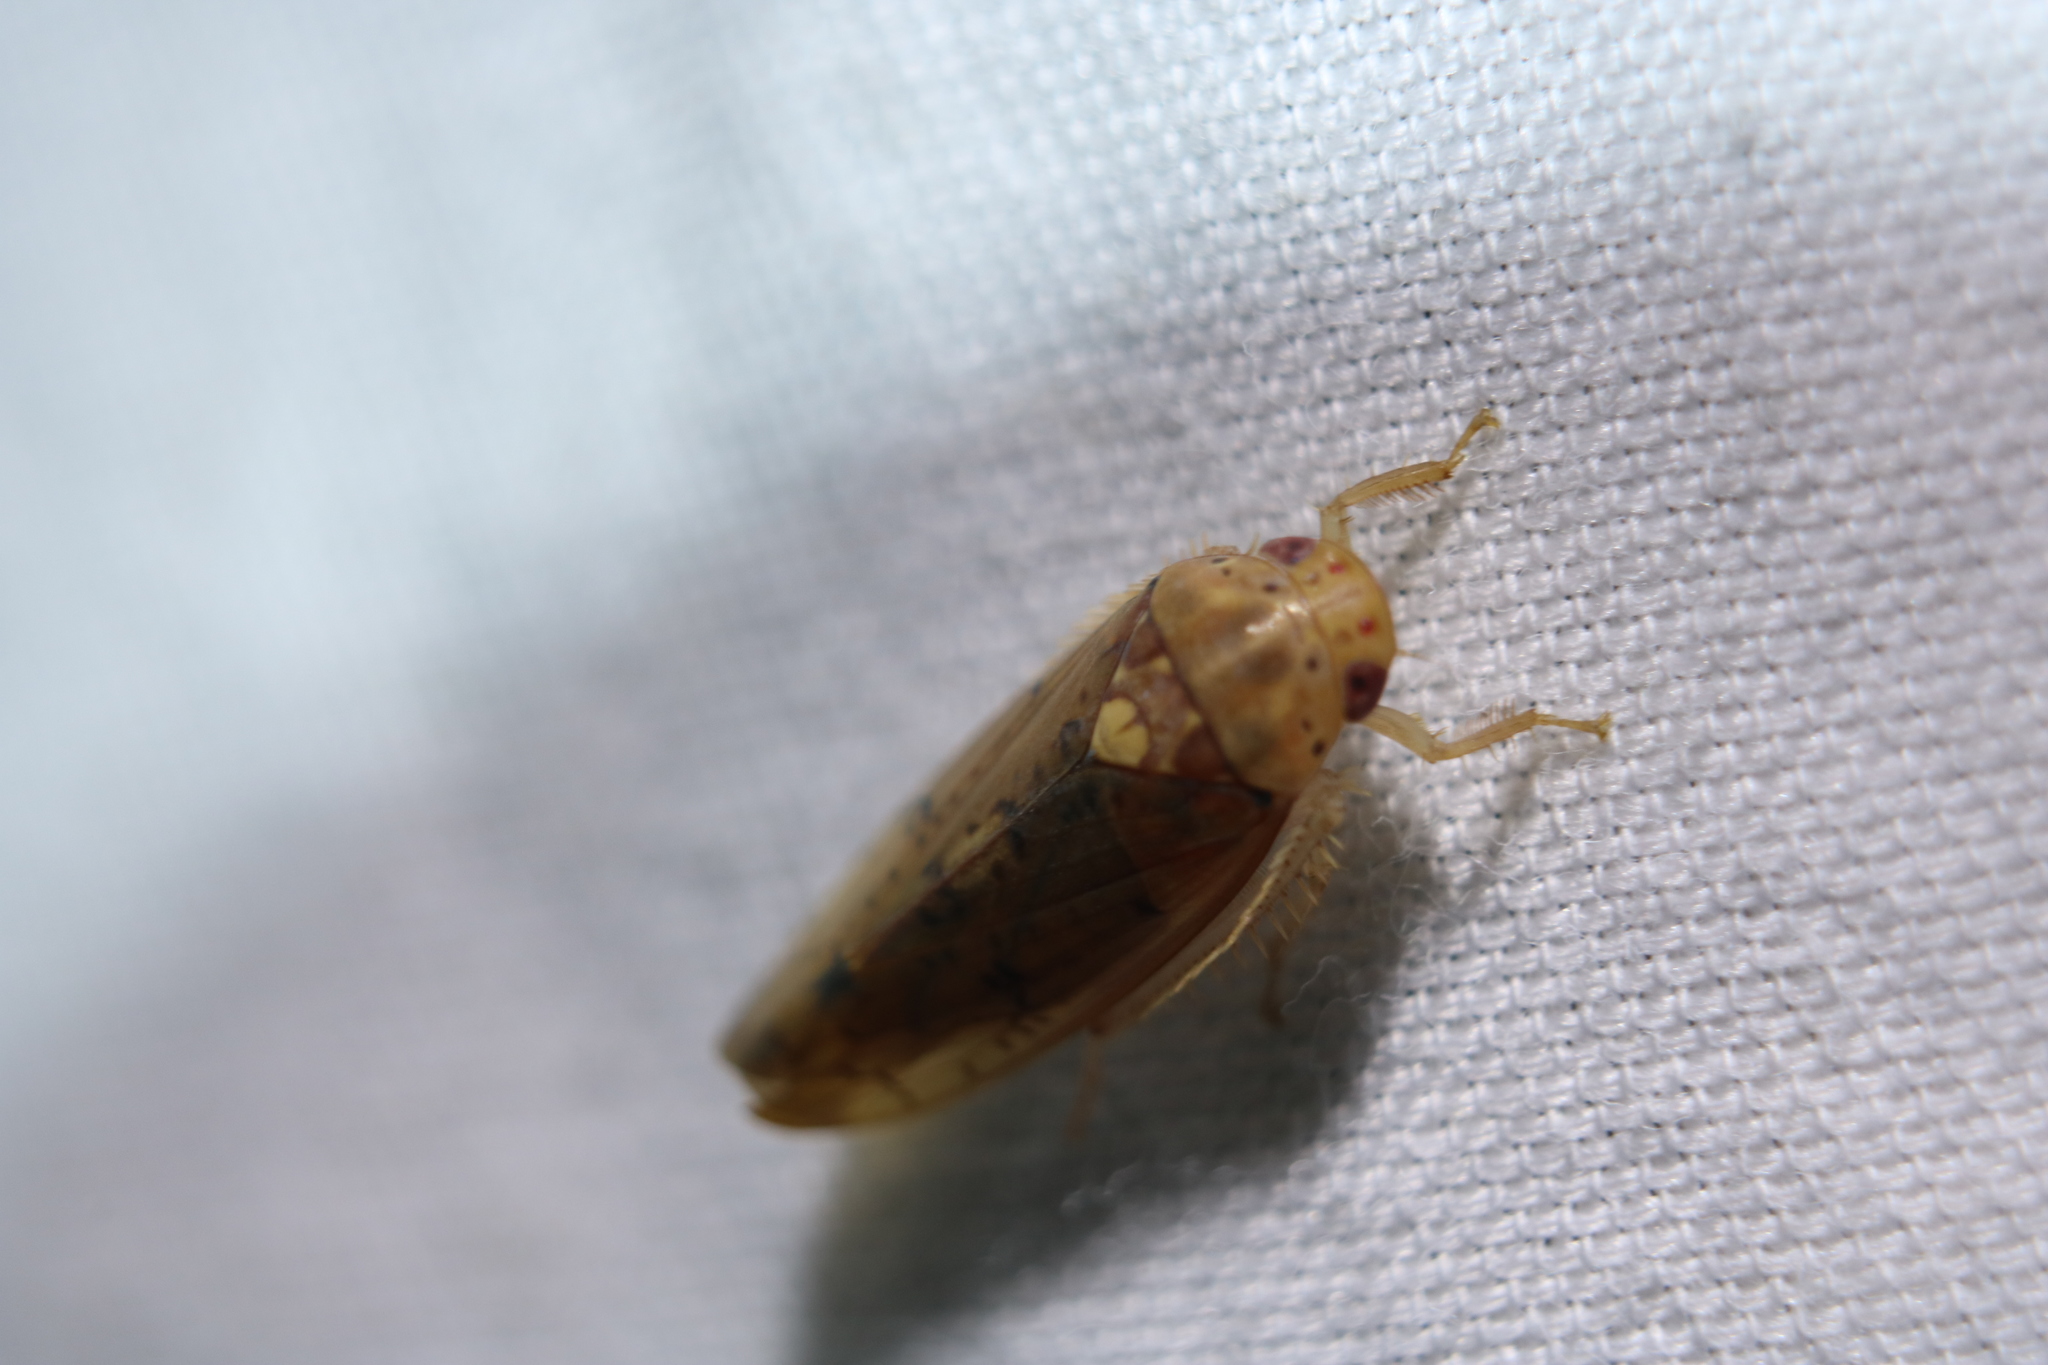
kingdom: Animalia
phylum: Arthropoda
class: Insecta
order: Hemiptera
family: Cicadellidae
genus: Ponana
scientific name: Ponana quadralaba
